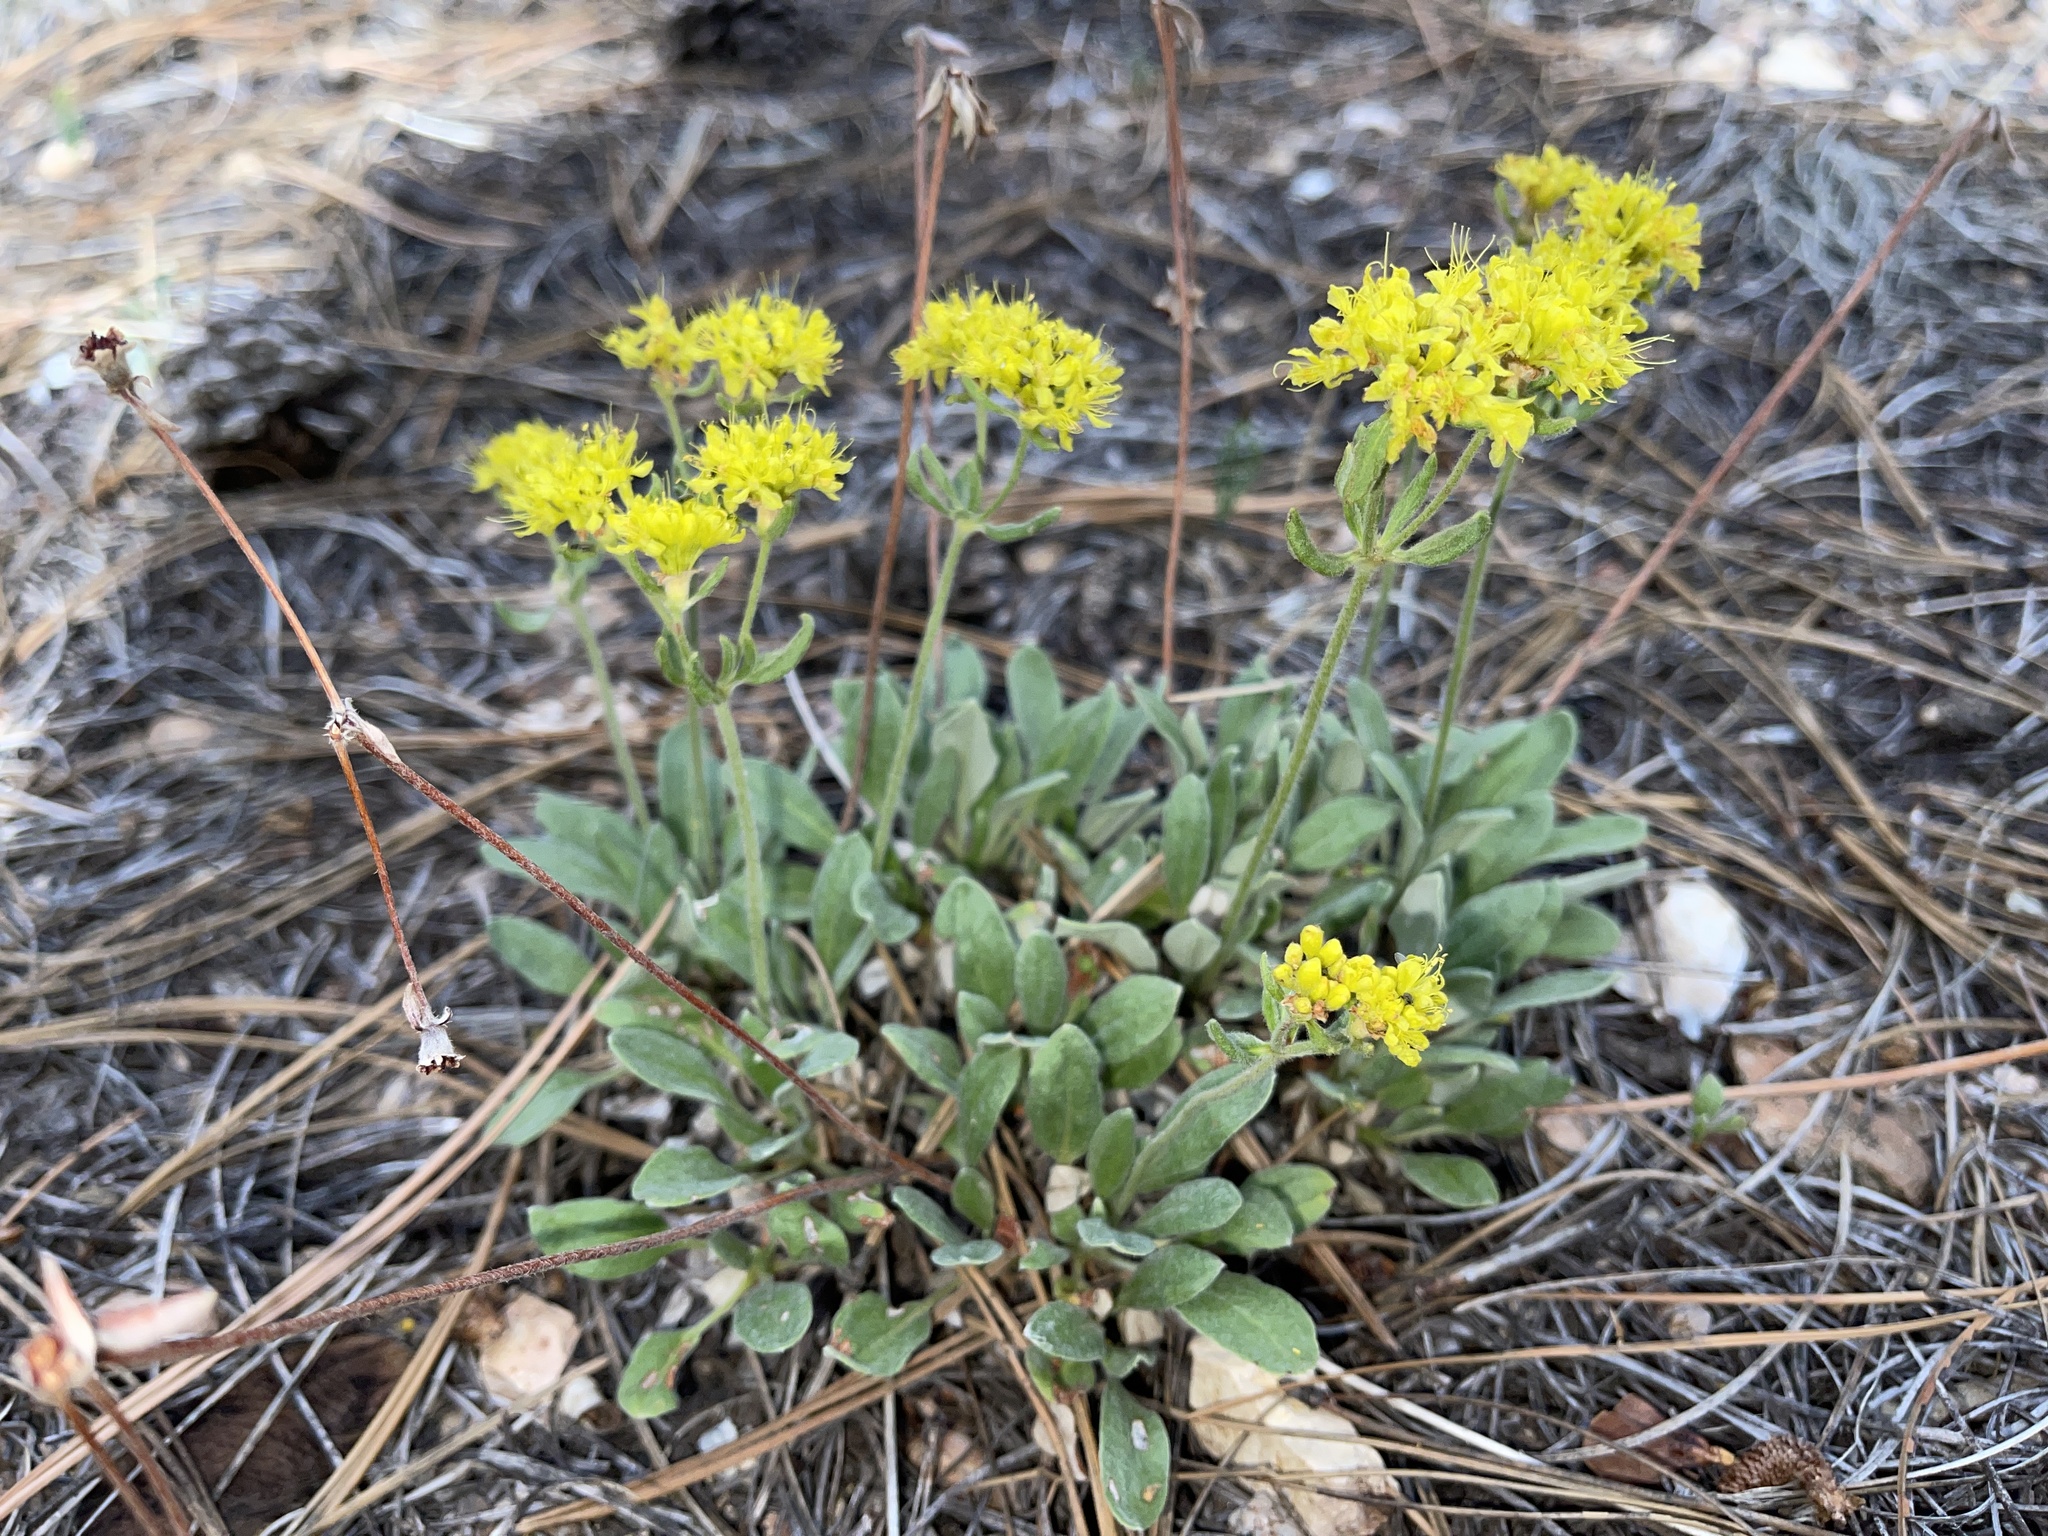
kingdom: Plantae
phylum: Tracheophyta
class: Magnoliopsida
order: Caryophyllales
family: Polygonaceae
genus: Eriogonum
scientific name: Eriogonum umbellatum
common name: Sulfur-buckwheat
